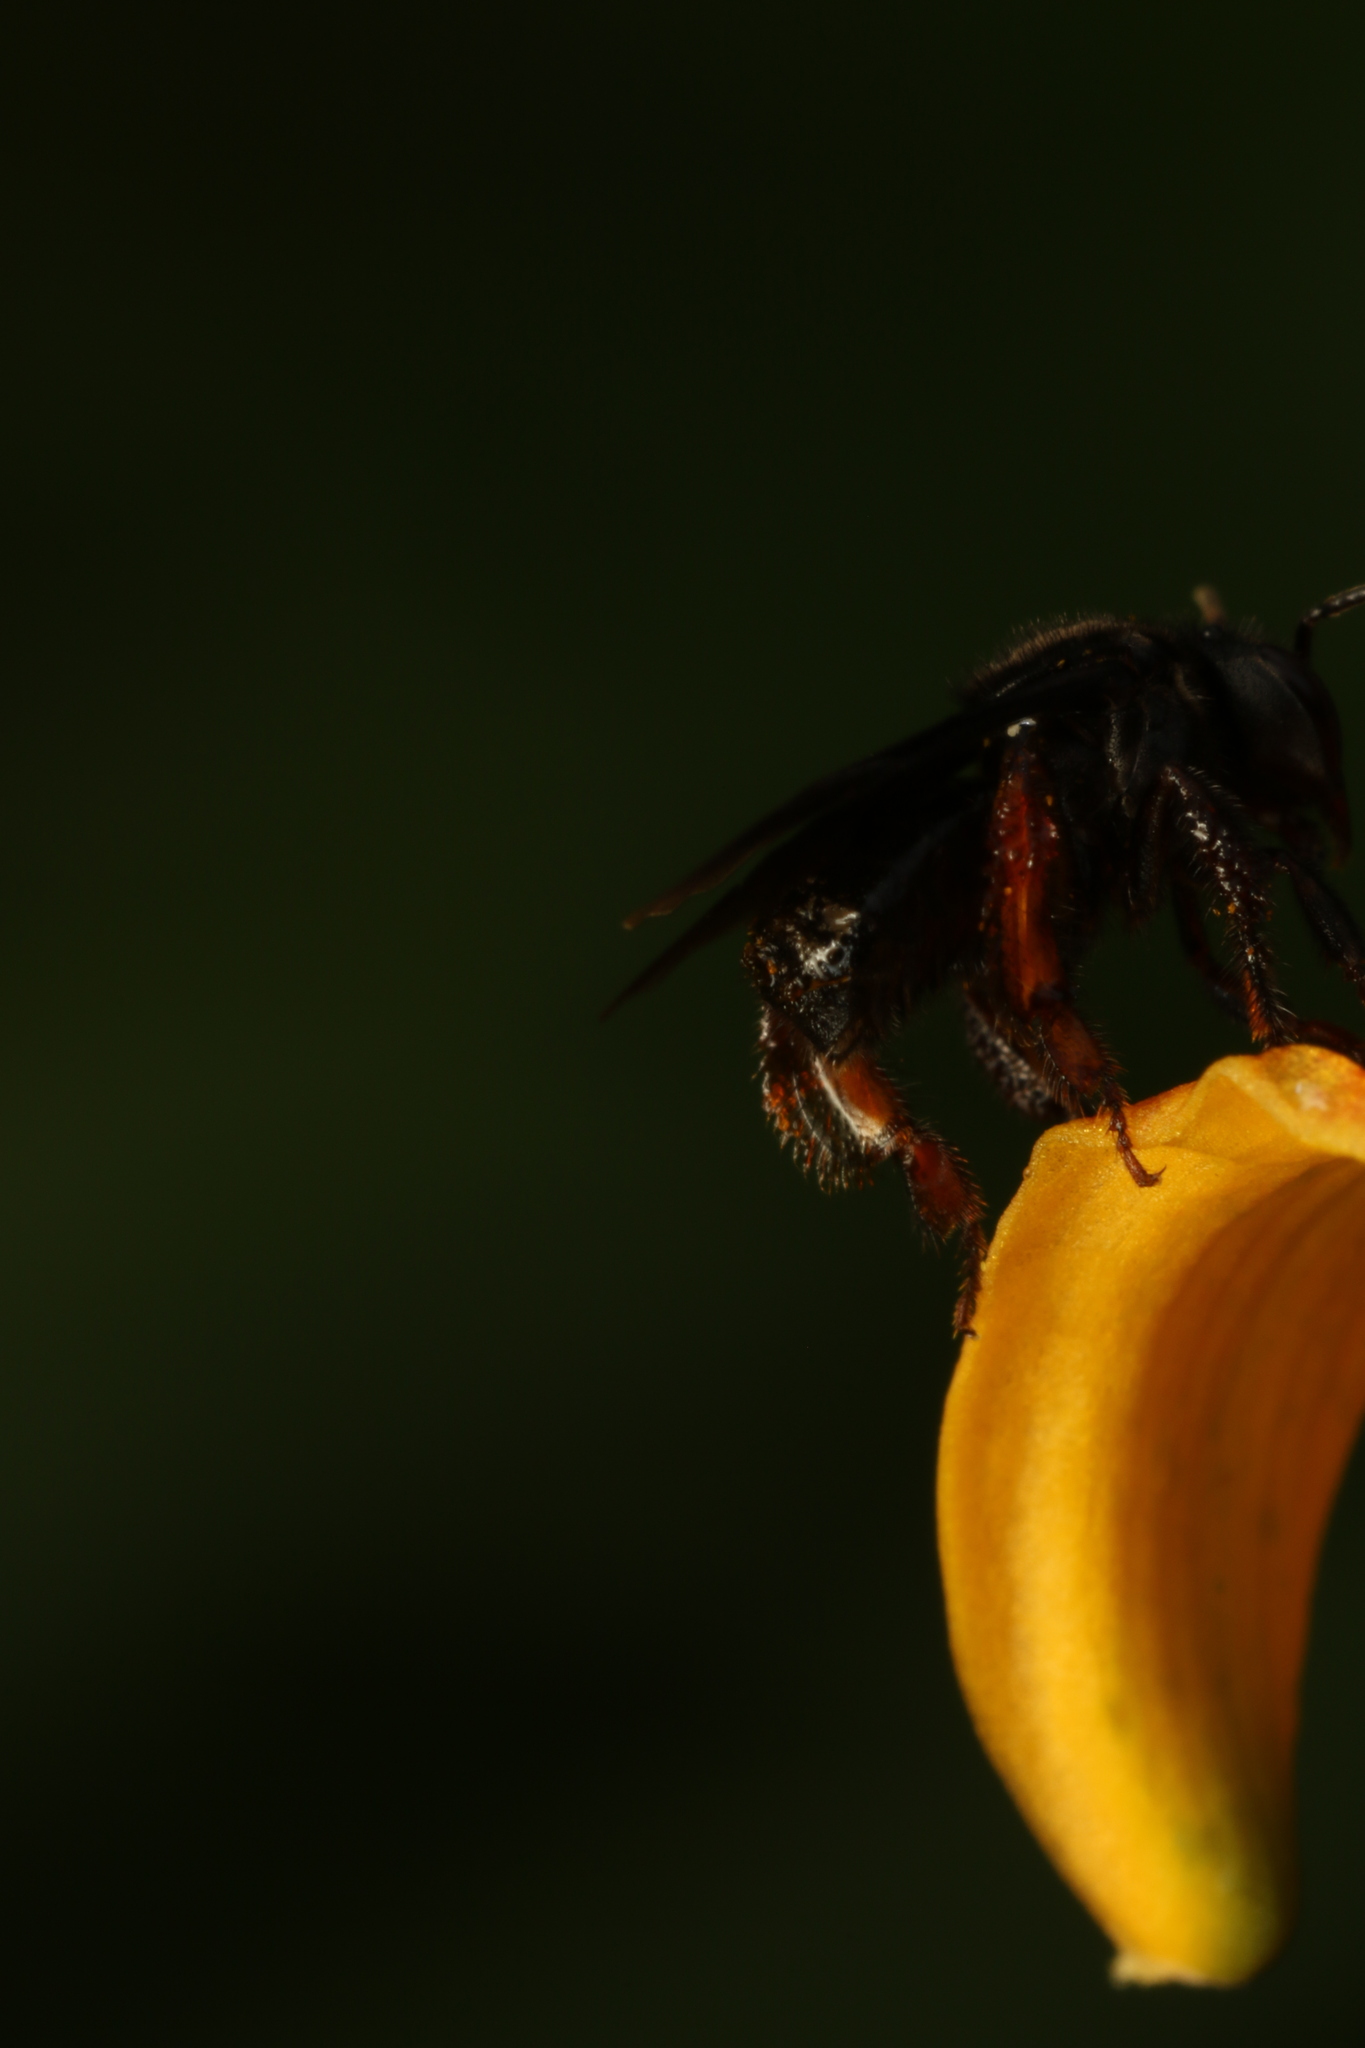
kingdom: Animalia
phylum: Arthropoda
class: Insecta
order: Hymenoptera
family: Apidae
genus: Trigona
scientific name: Trigona spinipes
